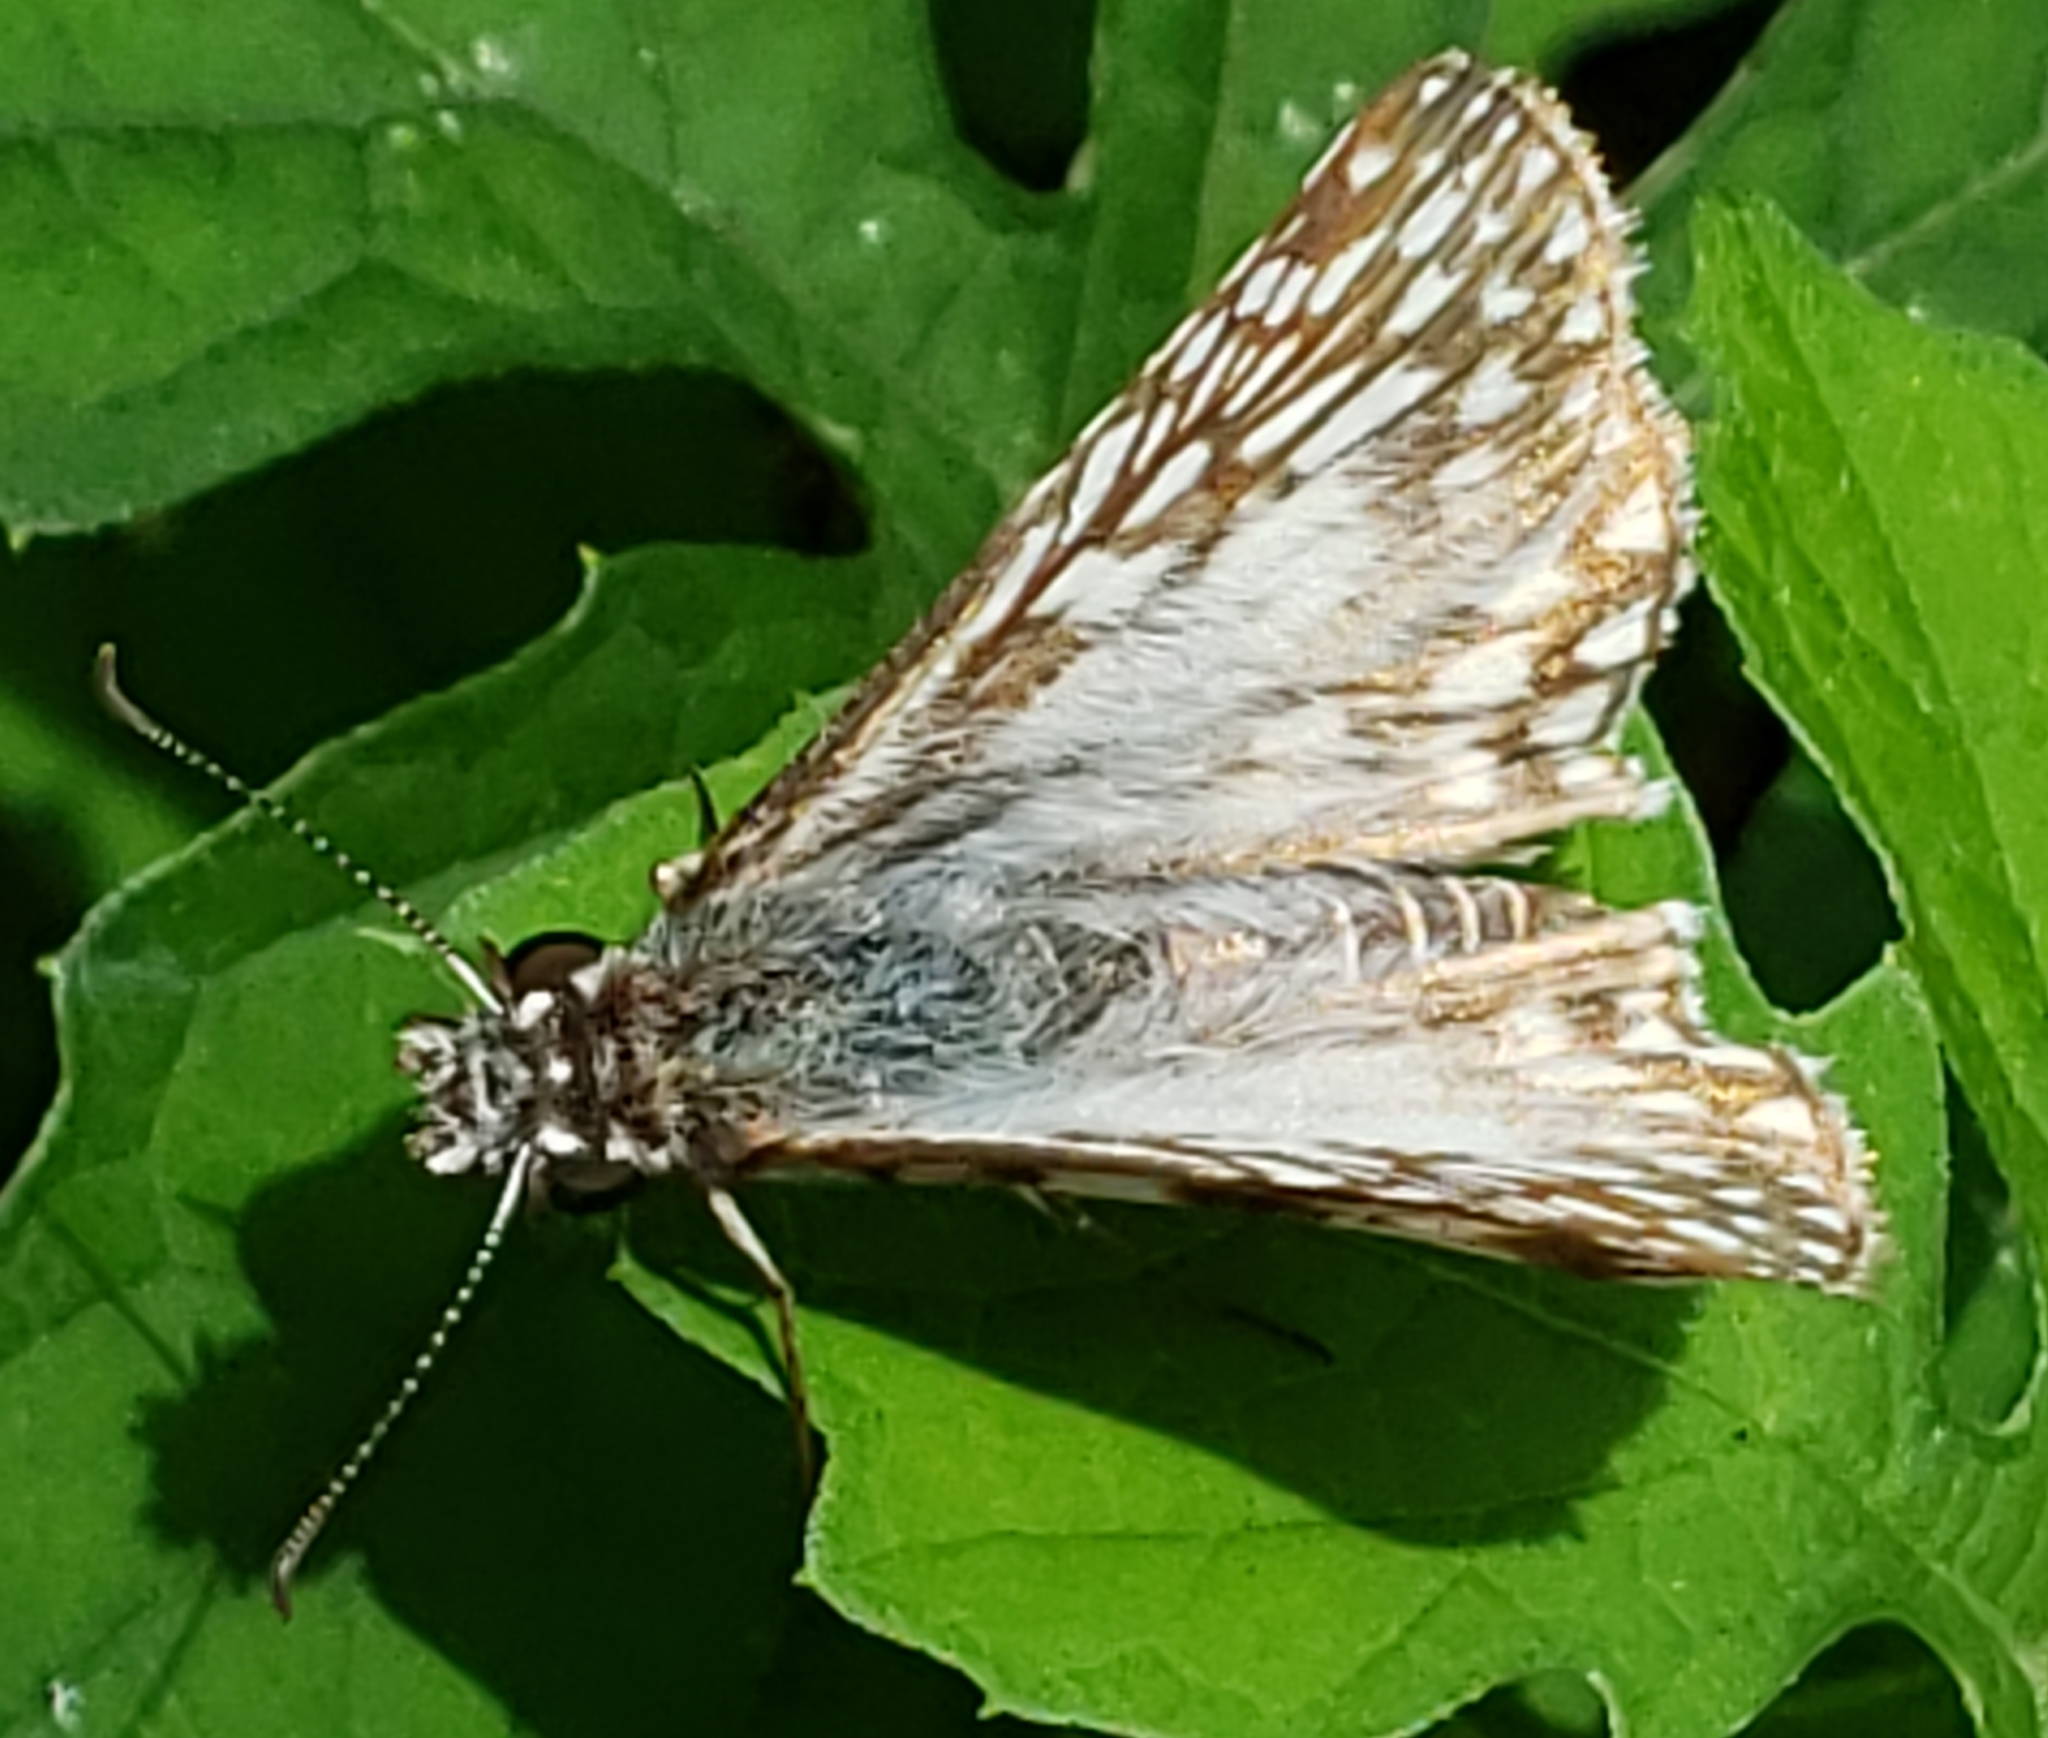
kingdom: Animalia
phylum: Arthropoda
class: Insecta
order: Lepidoptera
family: Hesperiidae
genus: Pyrgus
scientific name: Pyrgus oileus
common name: Tropical checkered-skipper
